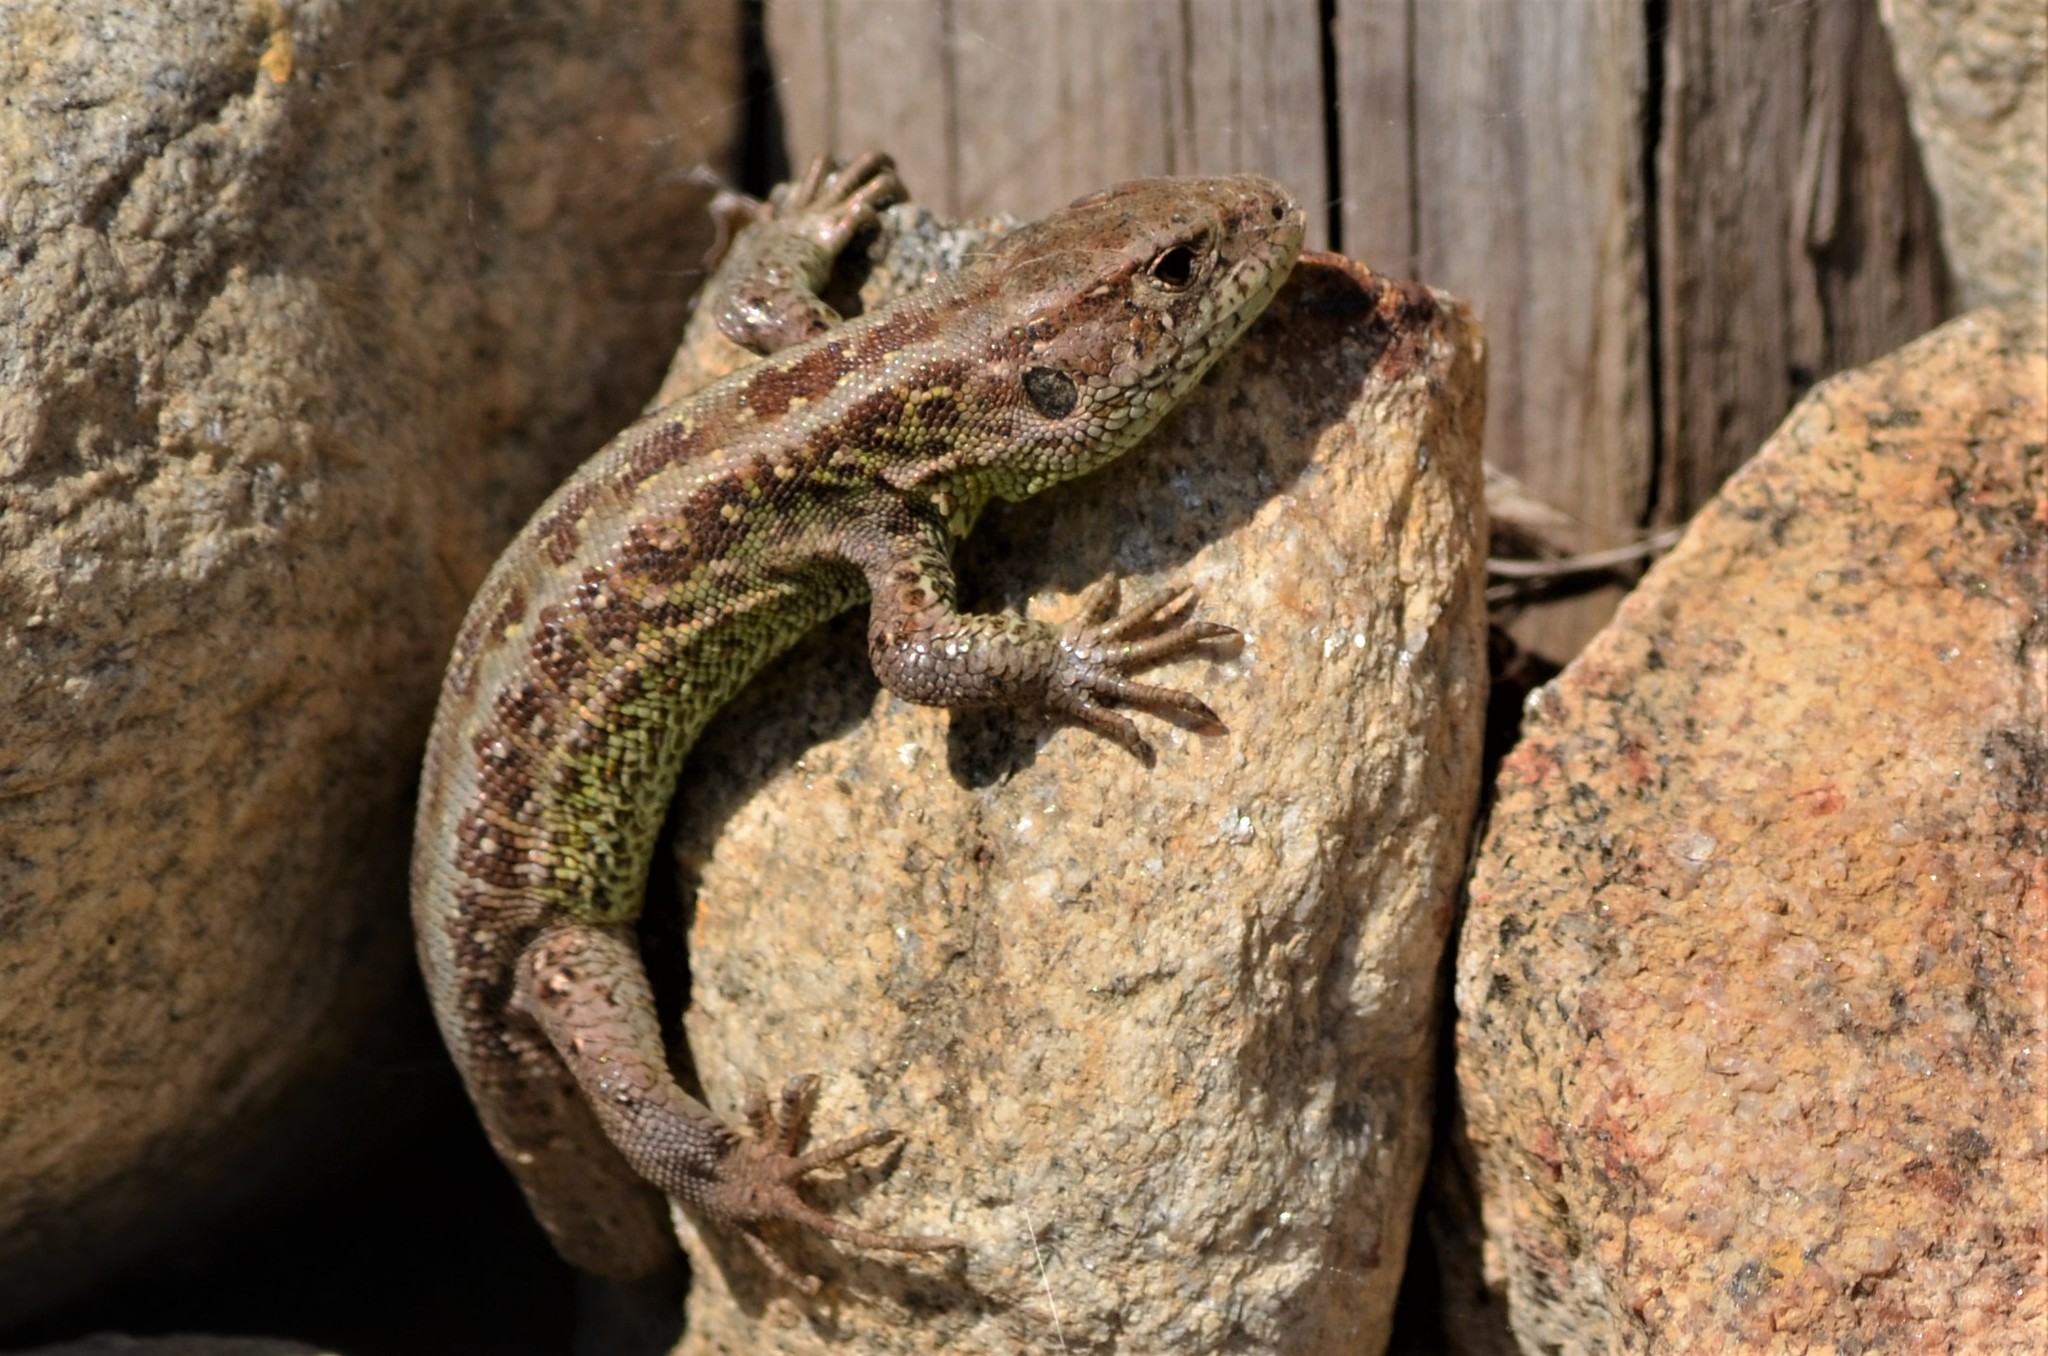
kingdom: Animalia
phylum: Chordata
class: Squamata
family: Lacertidae
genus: Lacerta
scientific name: Lacerta agilis
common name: Sand lizard
